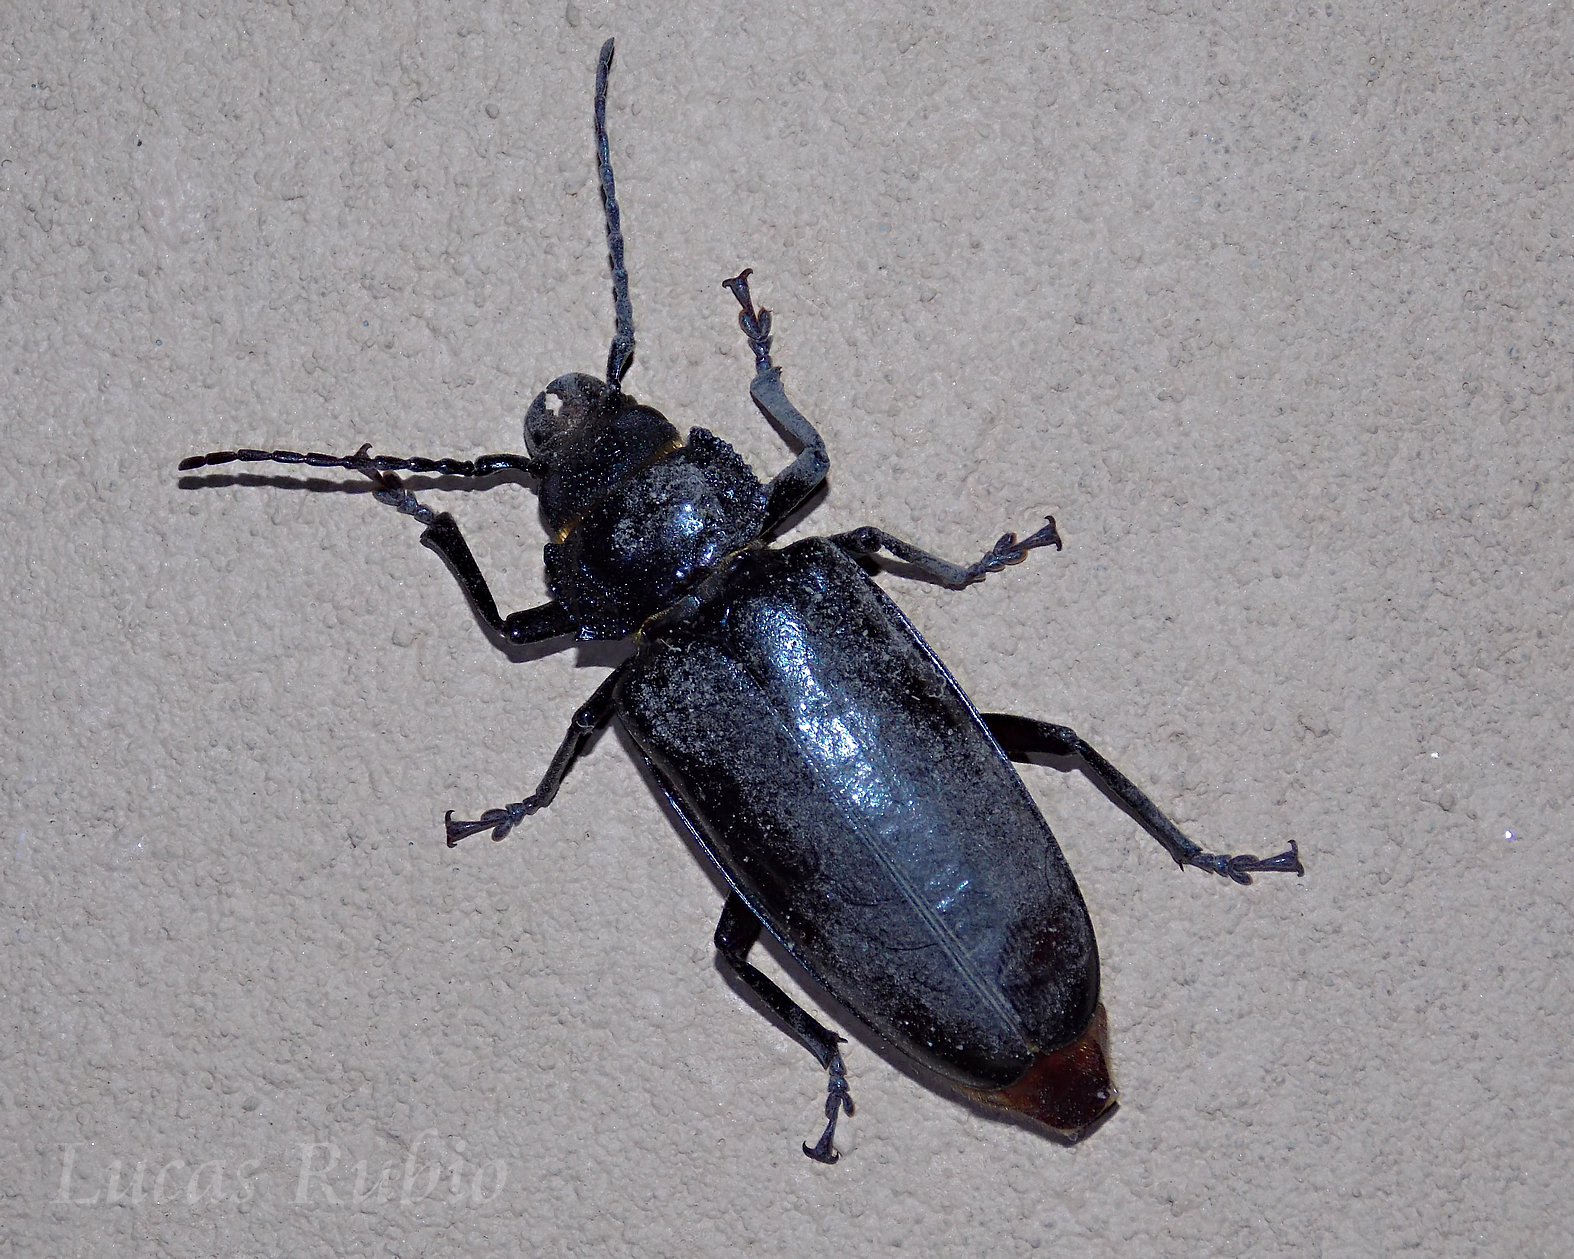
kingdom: Animalia
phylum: Arthropoda
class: Insecta
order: Coleoptera
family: Cerambycidae
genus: Mallodon
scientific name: Mallodon dasystomum
